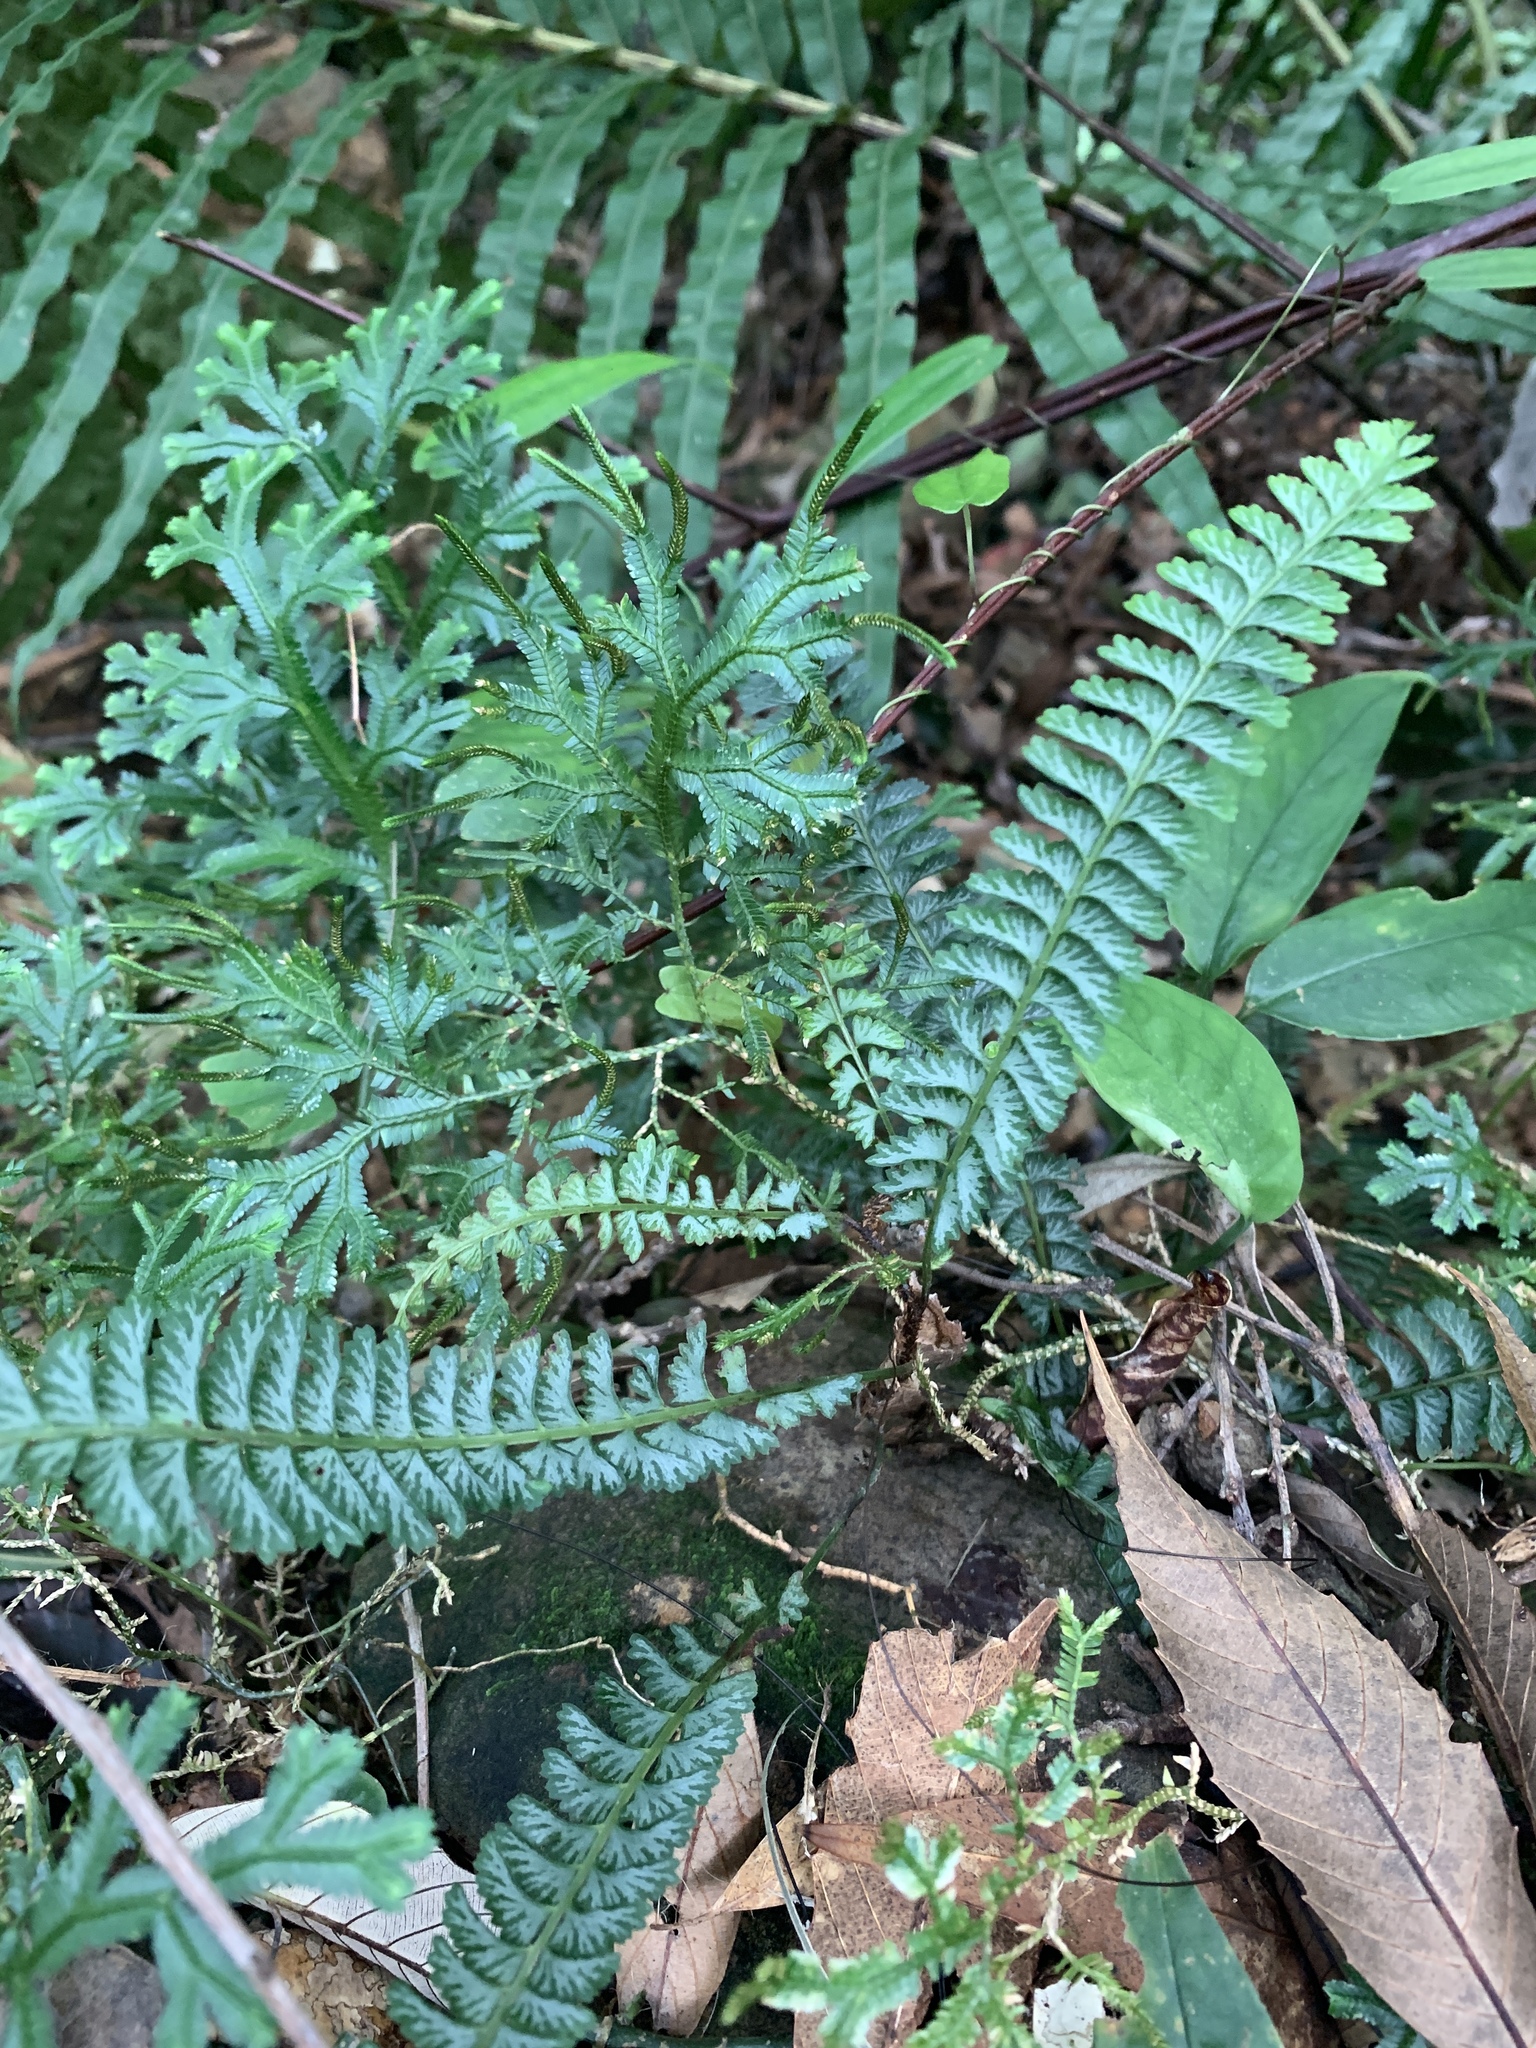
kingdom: Plantae
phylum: Tracheophyta
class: Polypodiopsida
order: Polypodiales
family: Lindsaeaceae
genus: Lindsaea
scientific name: Lindsaea yaeyamensis
